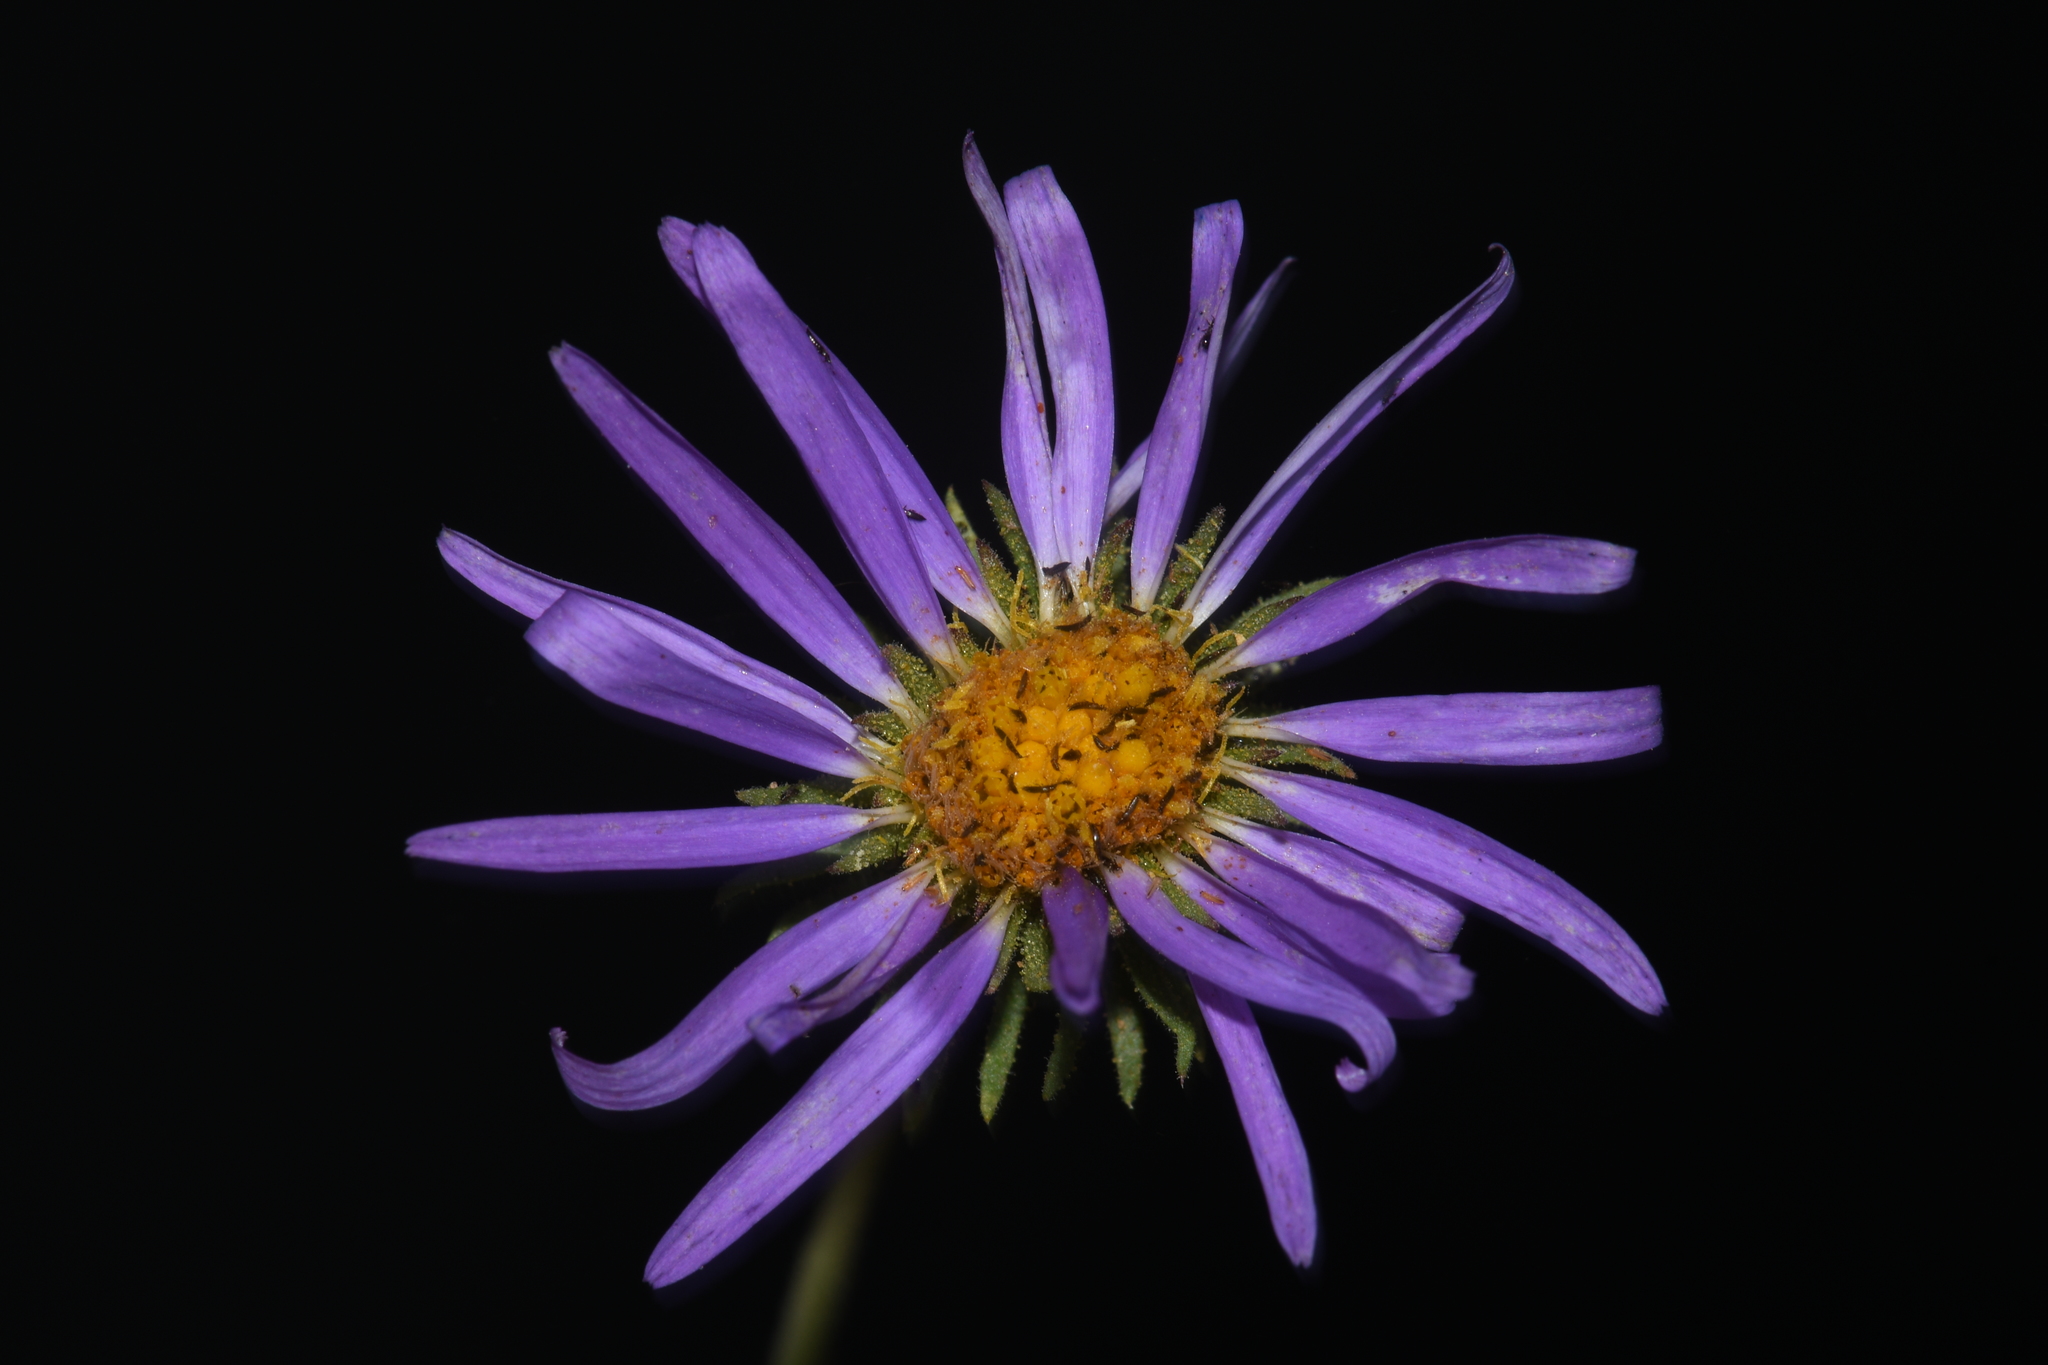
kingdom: Plantae
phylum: Tracheophyta
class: Magnoliopsida
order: Asterales
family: Asteraceae
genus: Machaeranthera
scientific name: Machaeranthera tanacetifolia
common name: Tansy-aster
